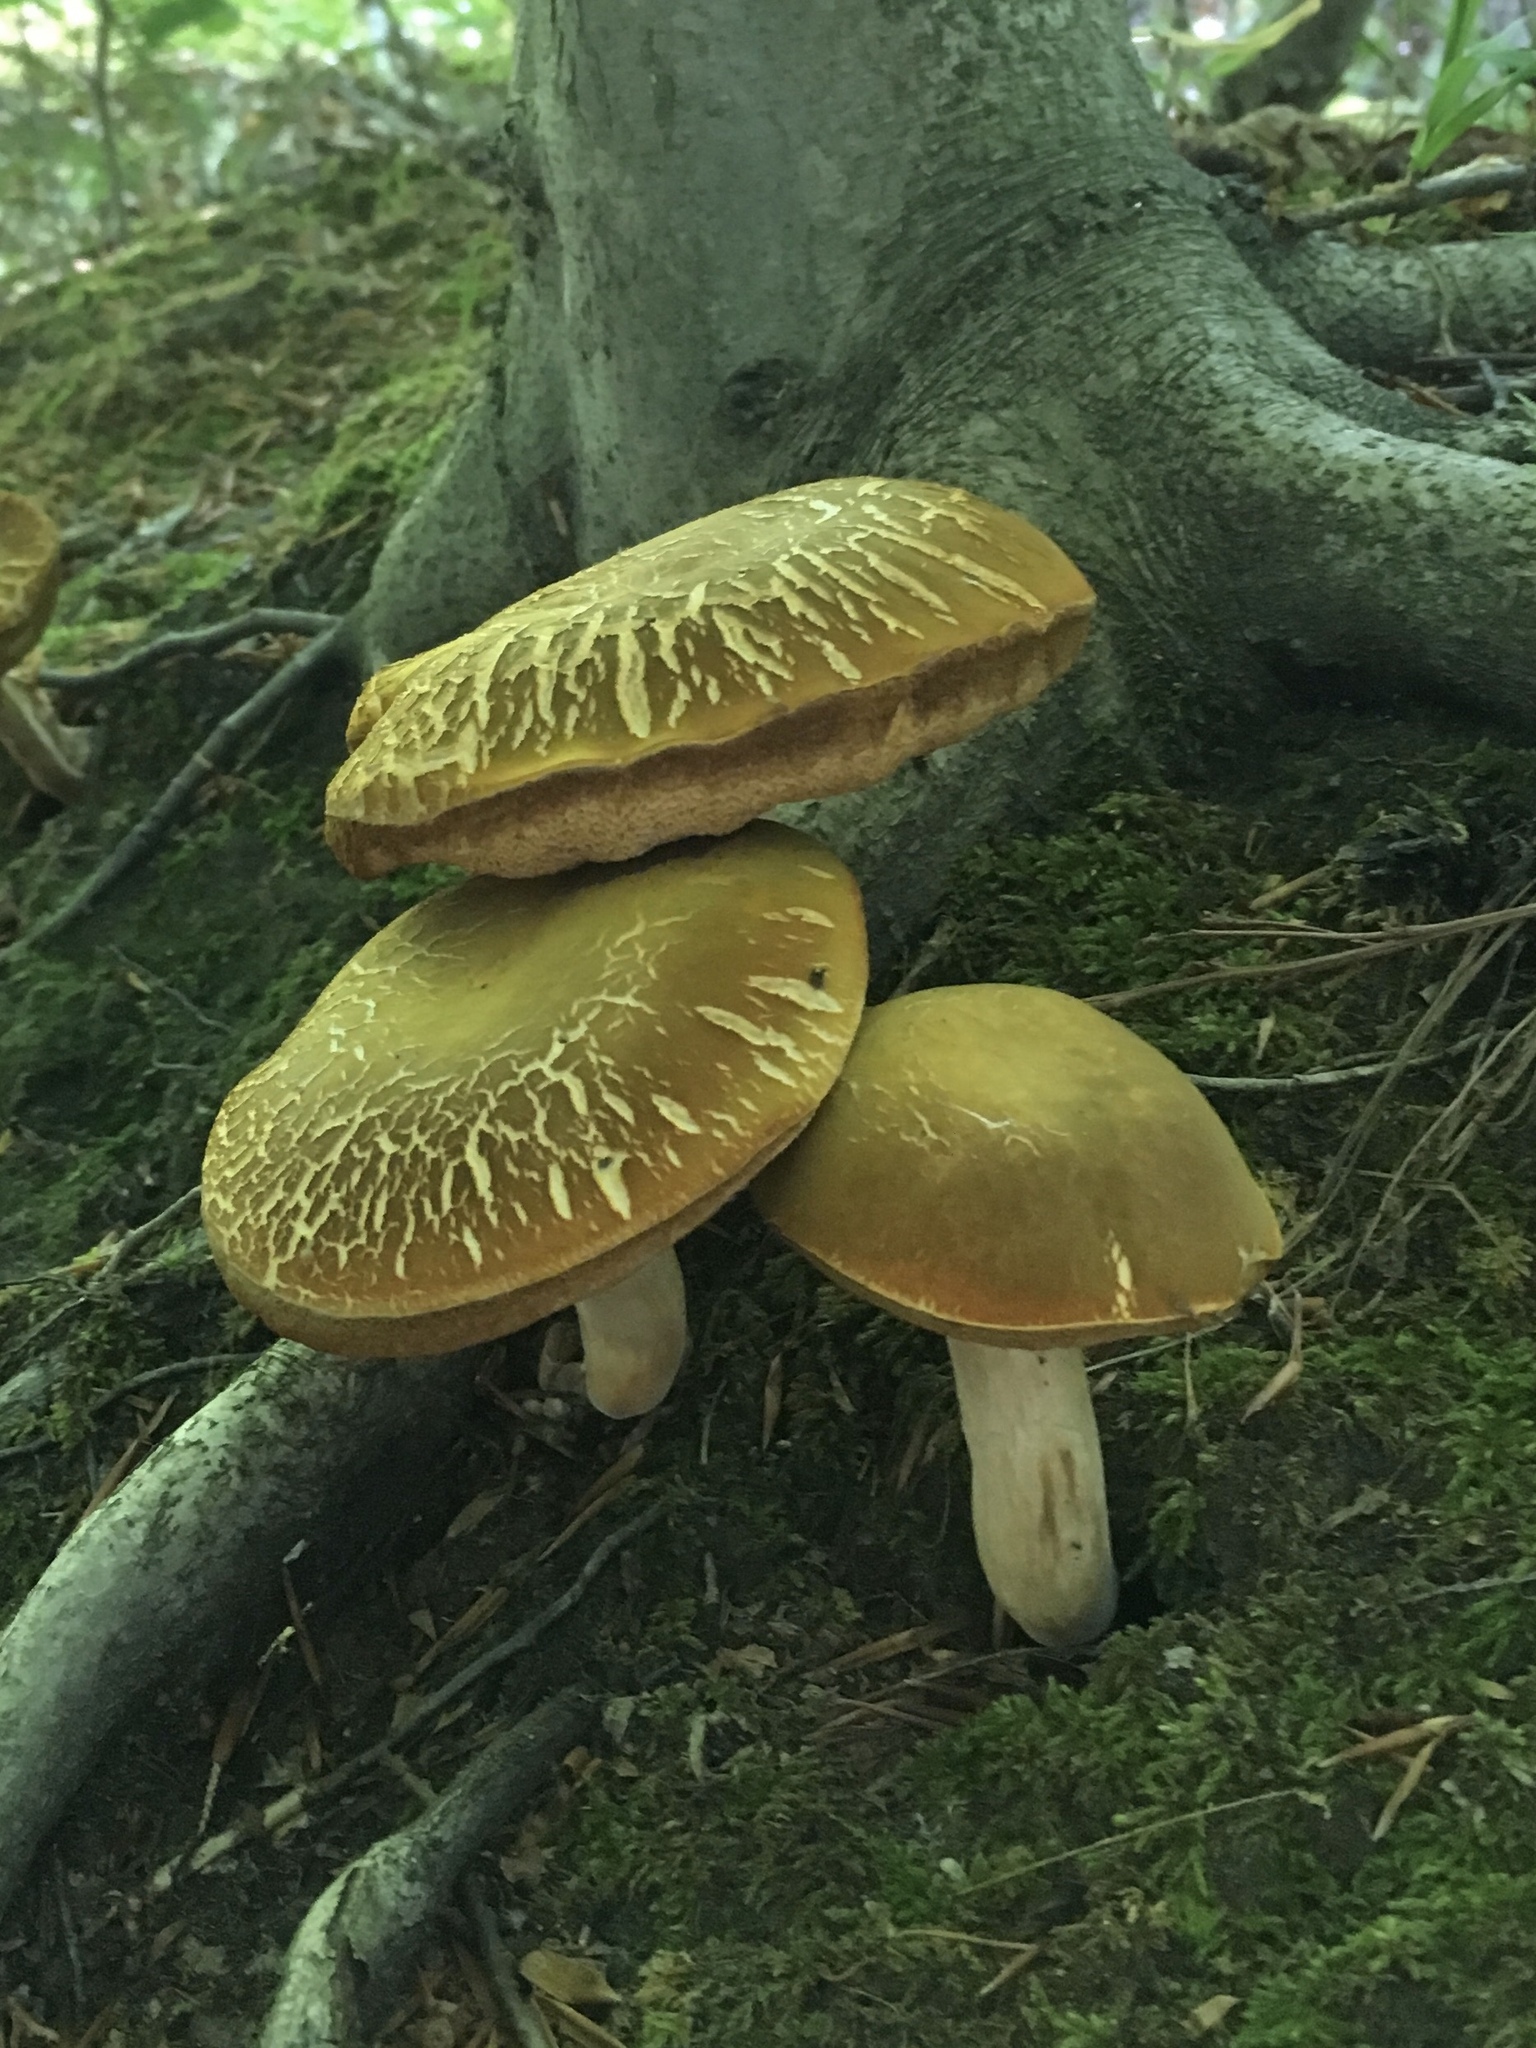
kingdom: Fungi
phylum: Basidiomycota
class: Agaricomycetes
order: Boletales
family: Boletaceae
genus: Xanthoconium
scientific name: Xanthoconium affine
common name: Spotted bolete
